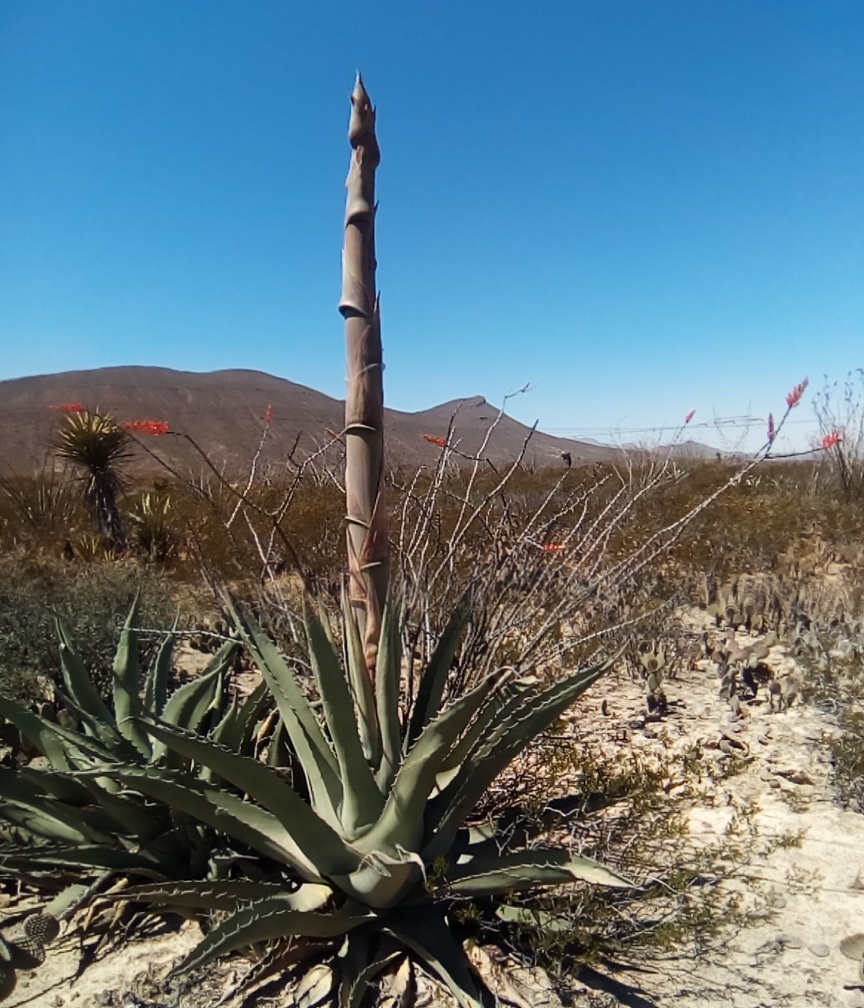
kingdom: Plantae
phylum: Tracheophyta
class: Liliopsida
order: Asparagales
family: Asparagaceae
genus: Agave
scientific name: Agave asperrima
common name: Rough agave
